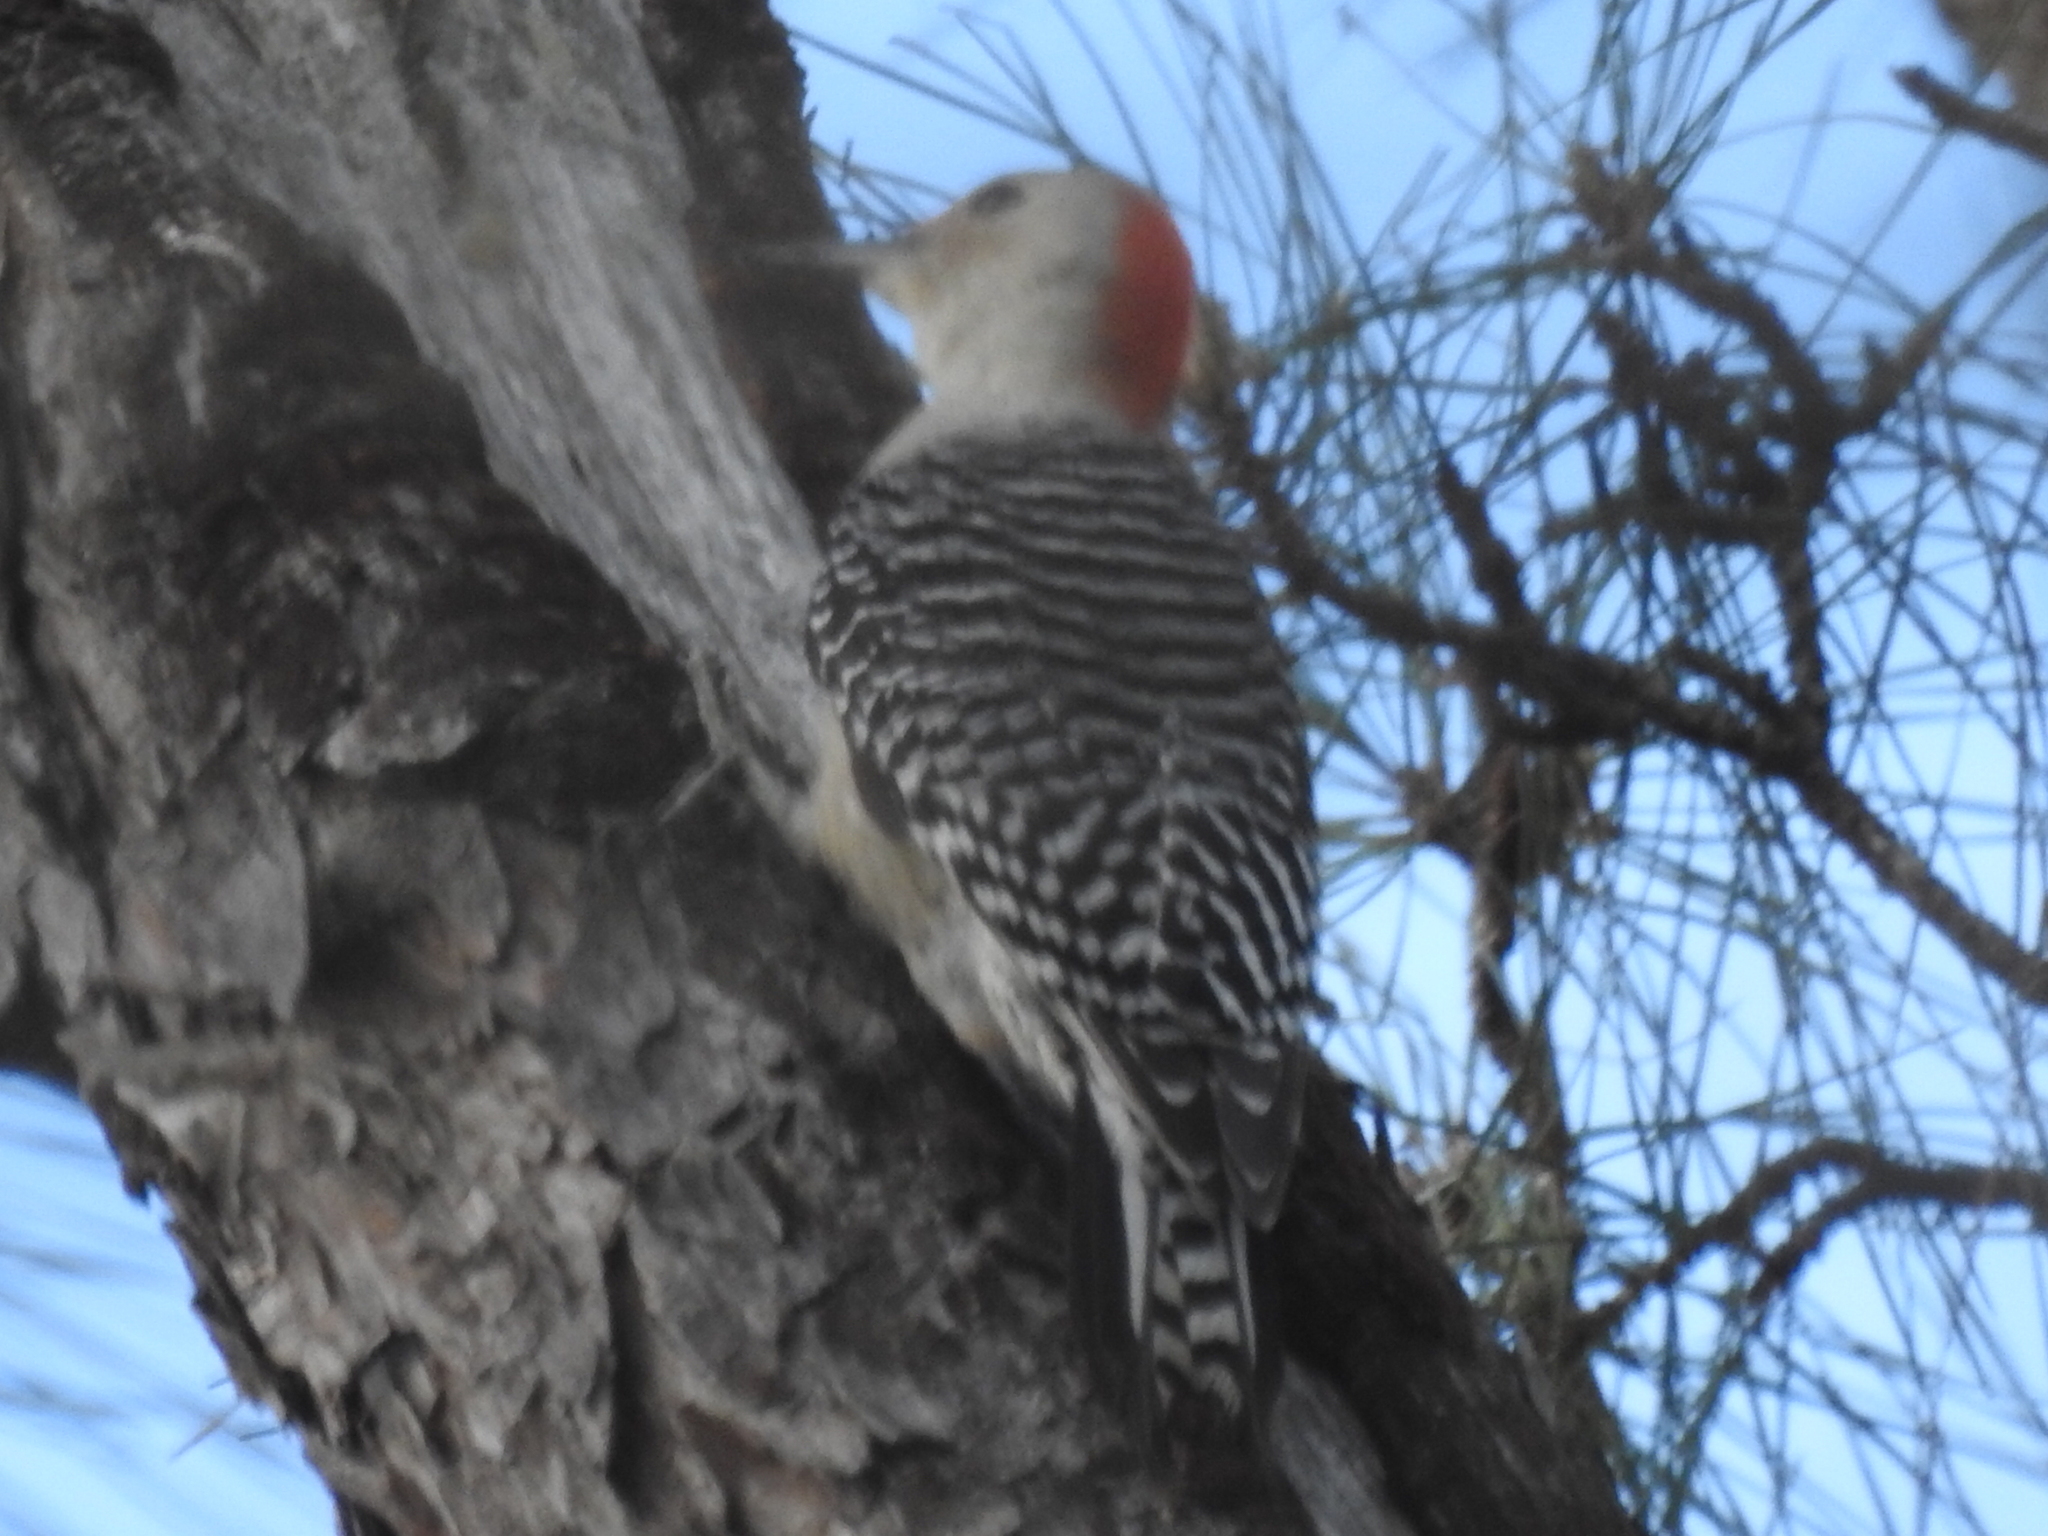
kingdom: Animalia
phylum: Chordata
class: Aves
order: Passeriformes
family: Turdidae
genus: Catharus
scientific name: Catharus guttatus
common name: Hermit thrush
